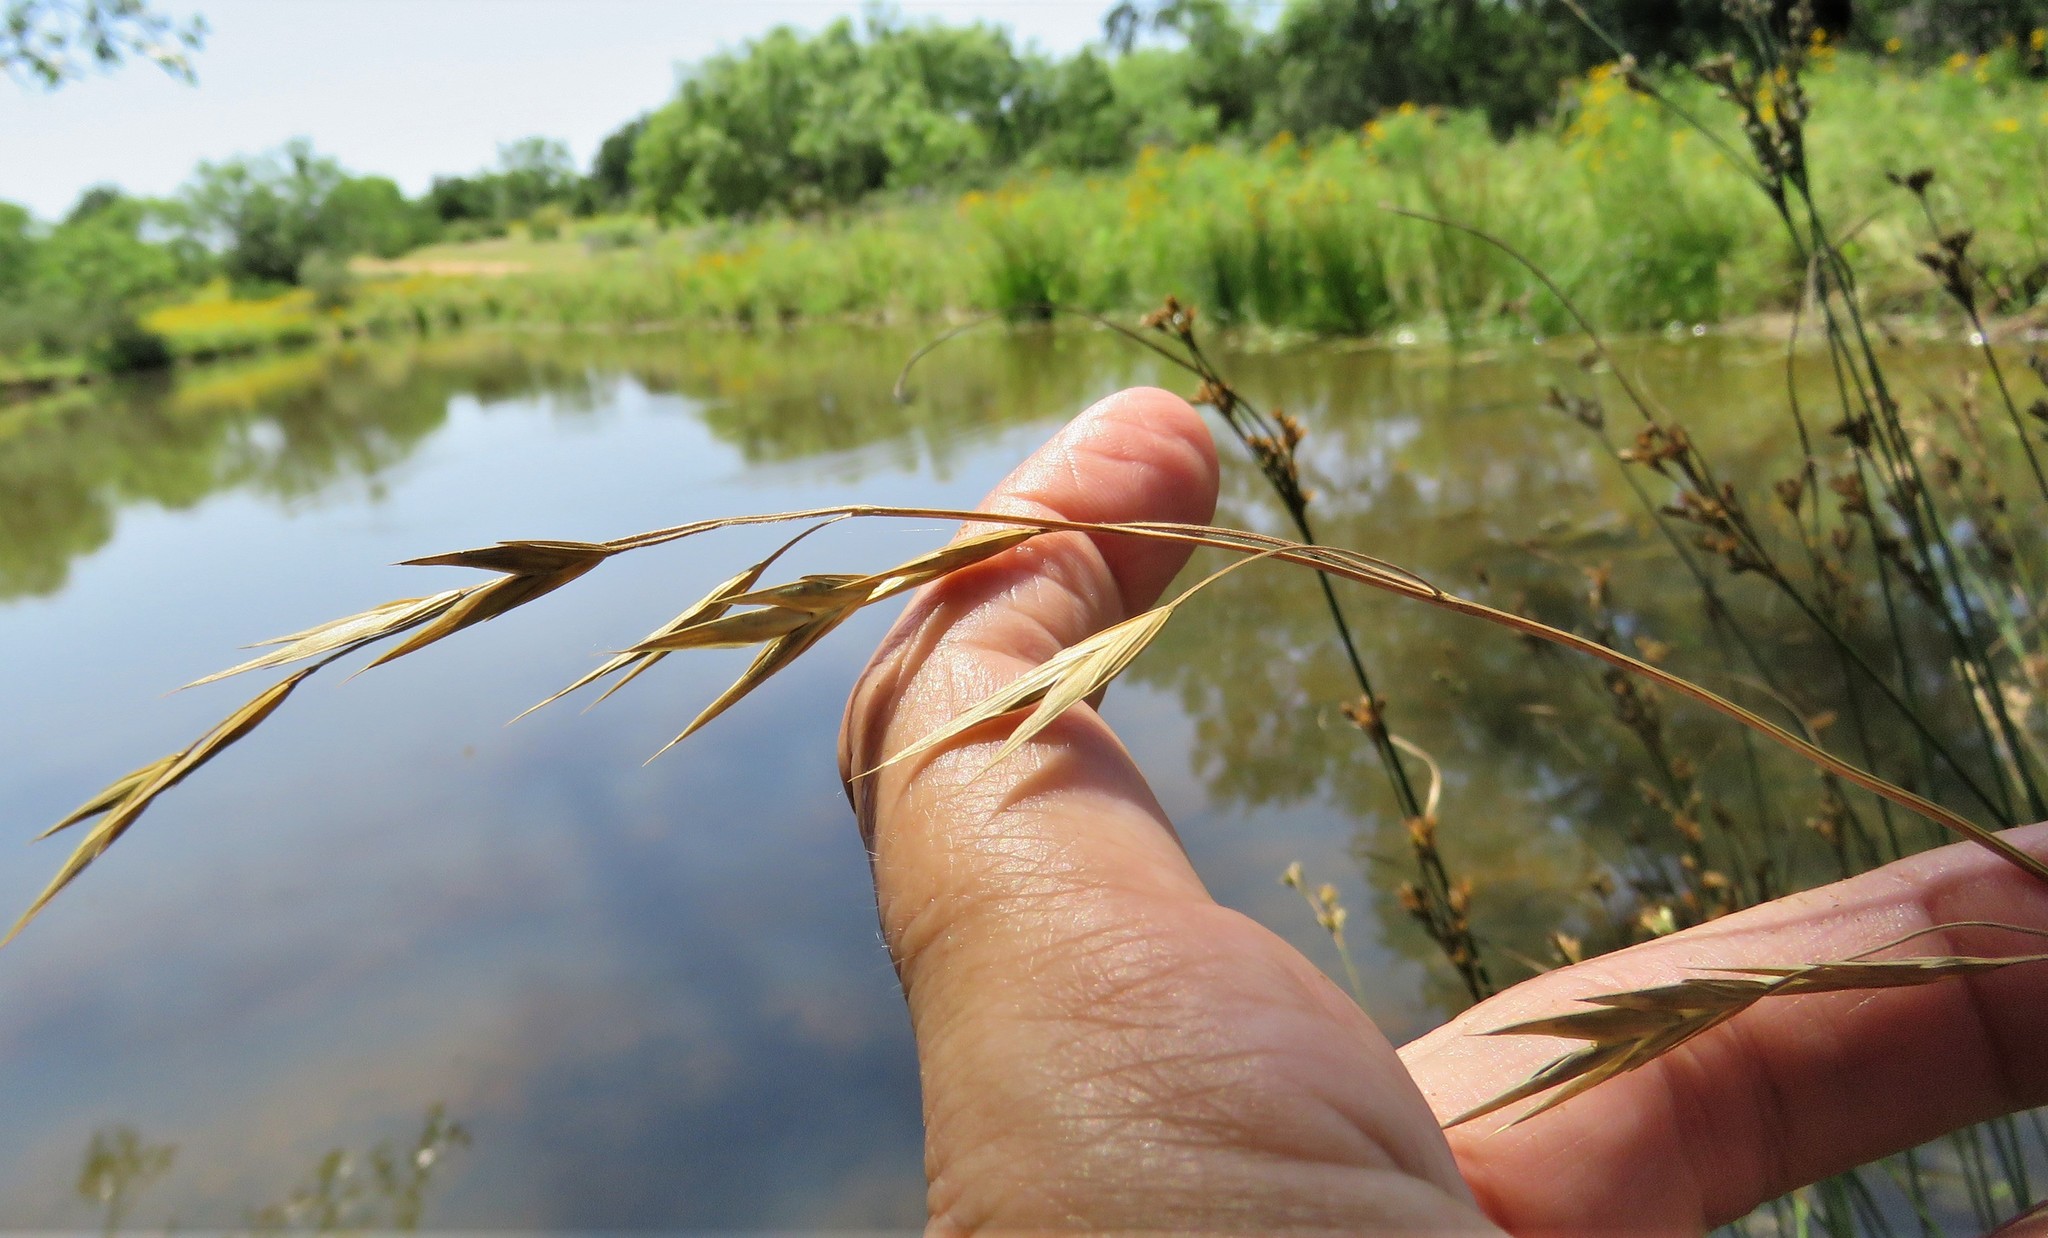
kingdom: Plantae
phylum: Tracheophyta
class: Liliopsida
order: Poales
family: Poaceae
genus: Bromus
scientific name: Bromus catharticus
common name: Rescuegrass
